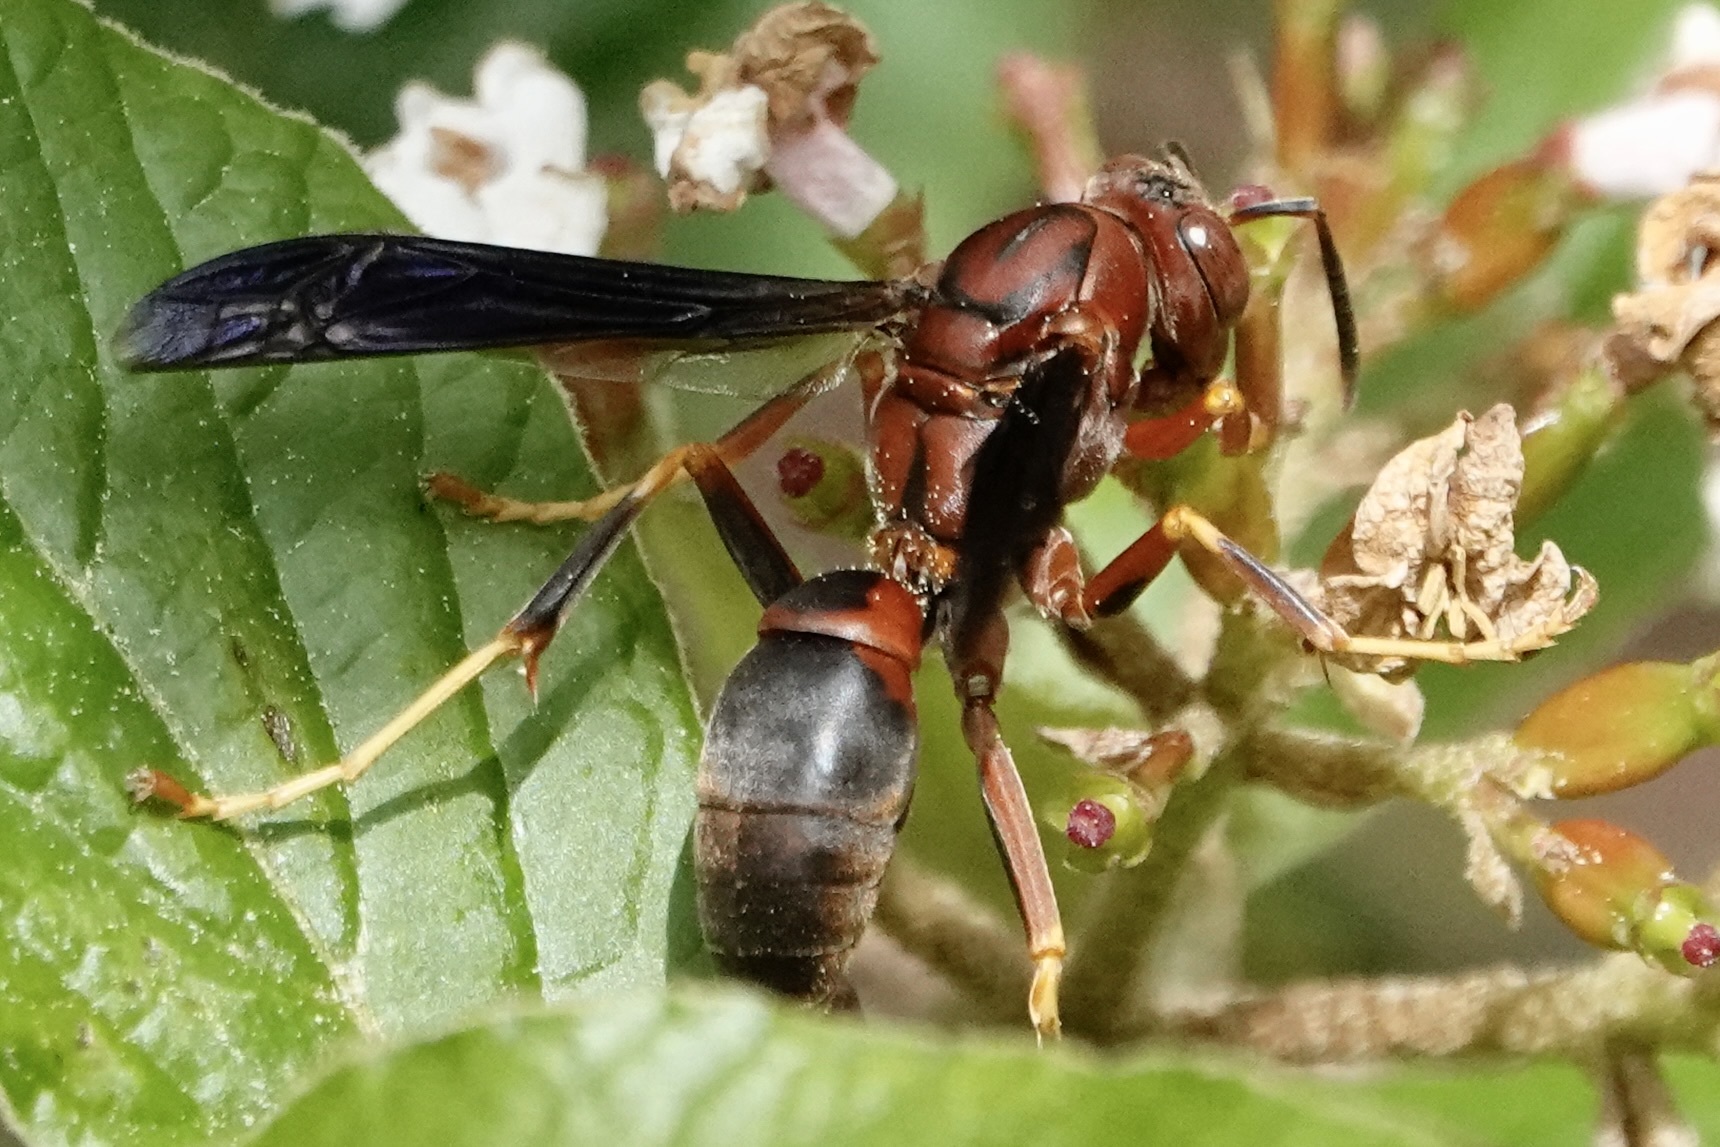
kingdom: Animalia
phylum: Arthropoda
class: Insecta
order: Hymenoptera
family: Eumenidae
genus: Polistes
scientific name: Polistes metricus
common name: Metric paper wasp
